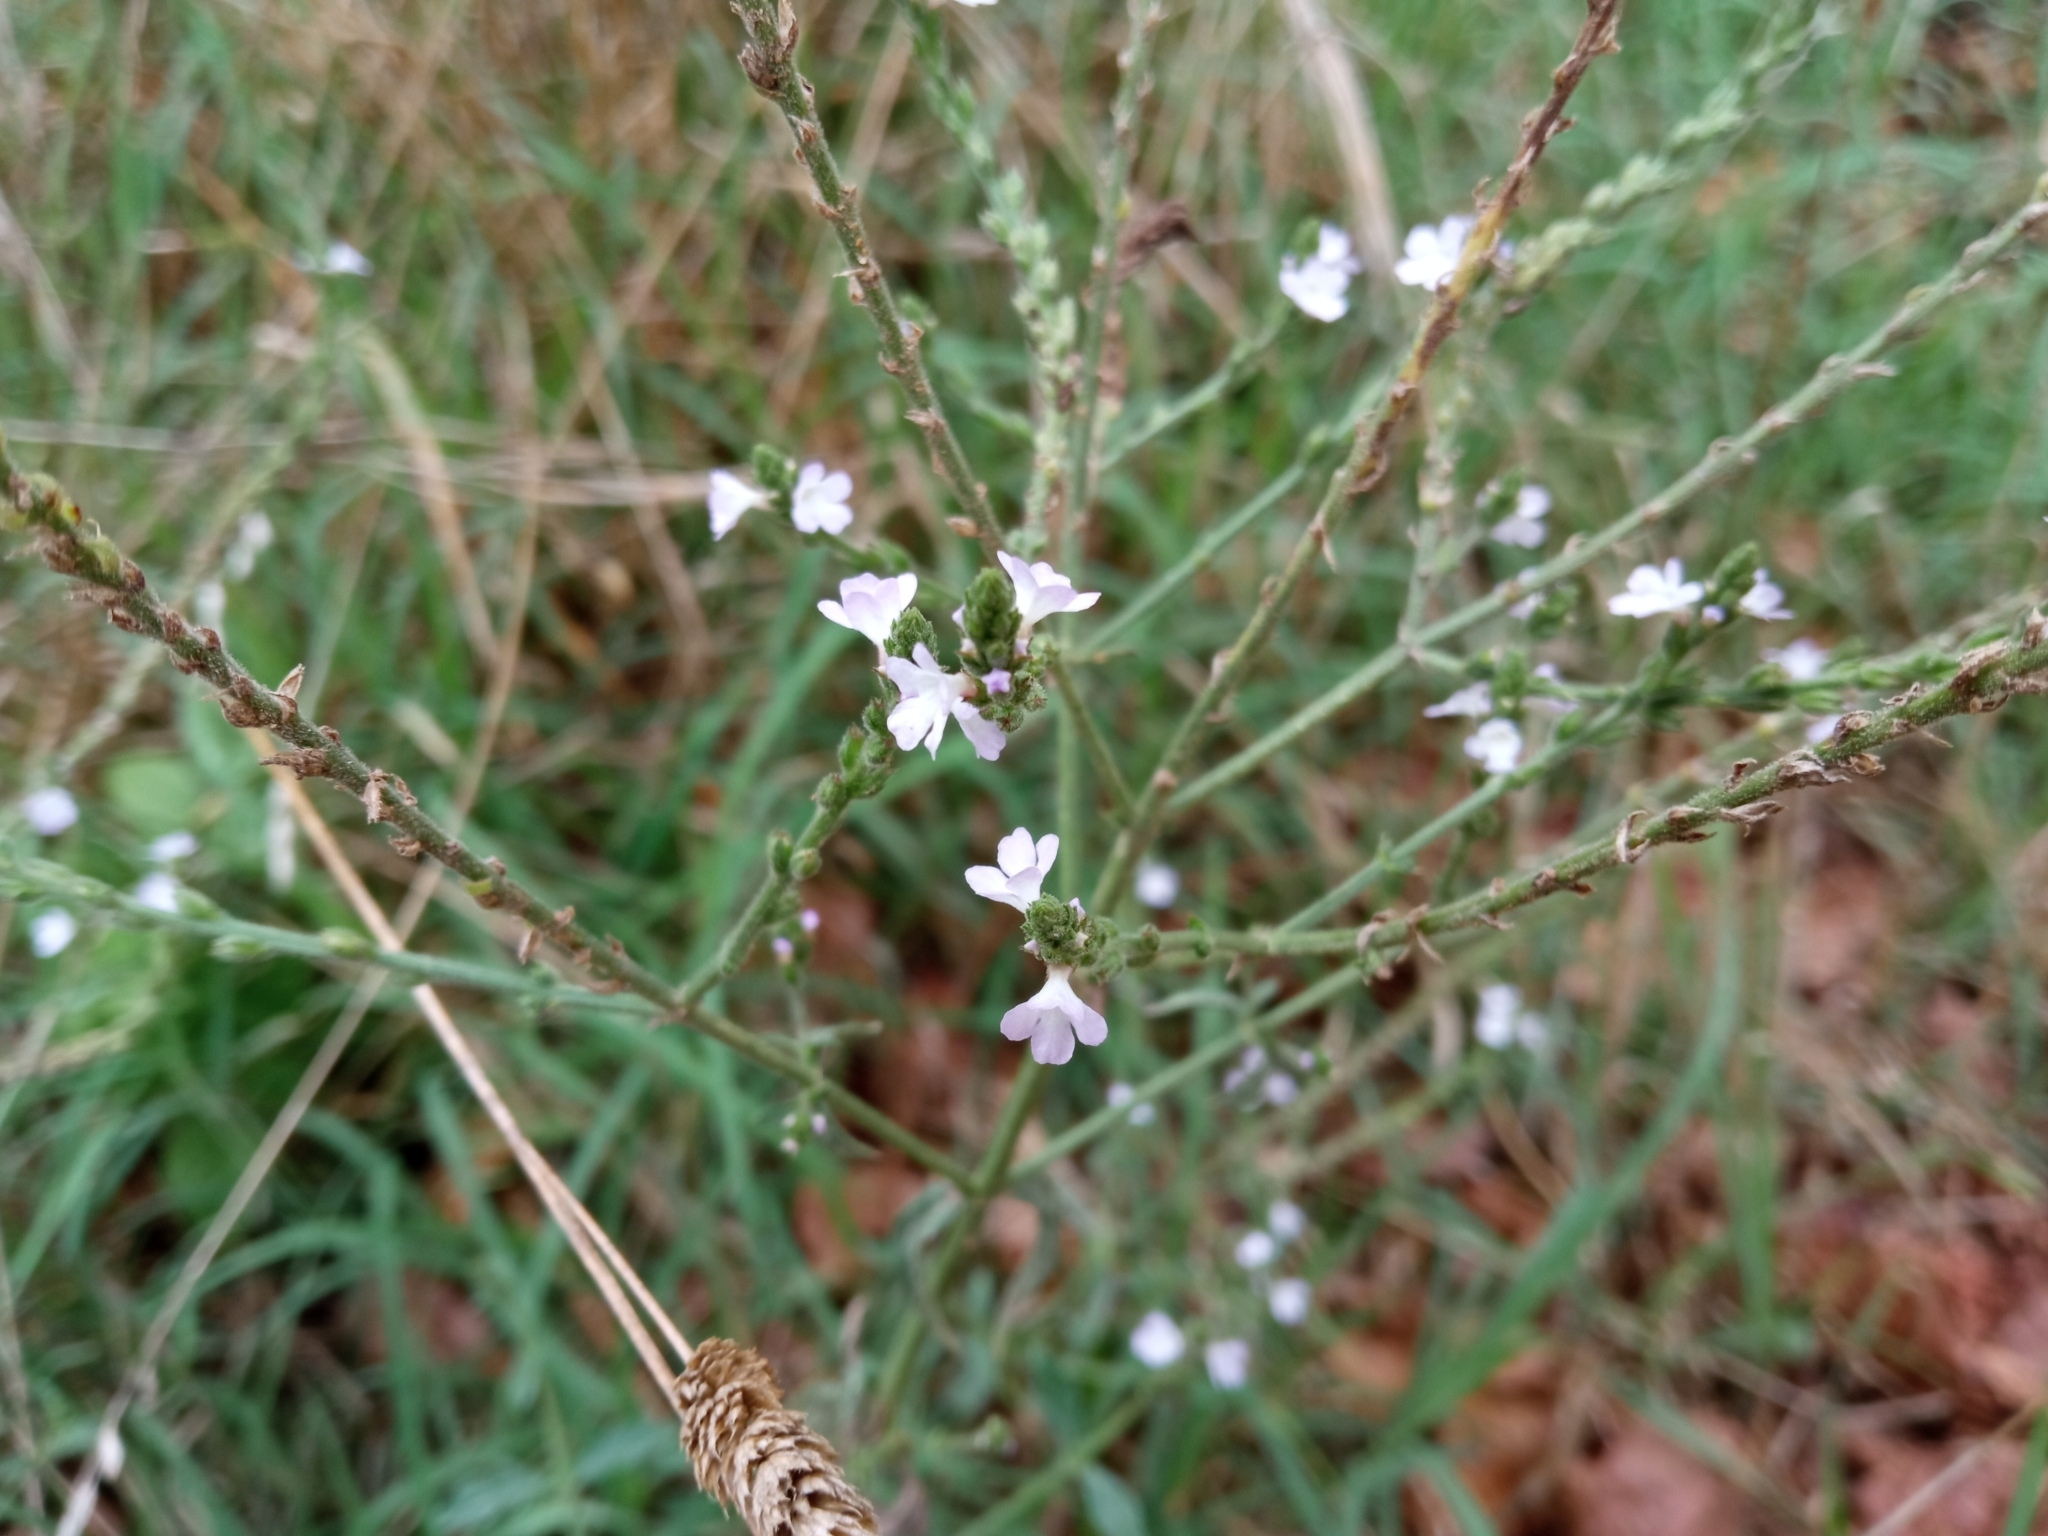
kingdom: Plantae
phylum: Tracheophyta
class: Magnoliopsida
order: Lamiales
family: Verbenaceae
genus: Verbena
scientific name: Verbena officinalis
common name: Vervain
